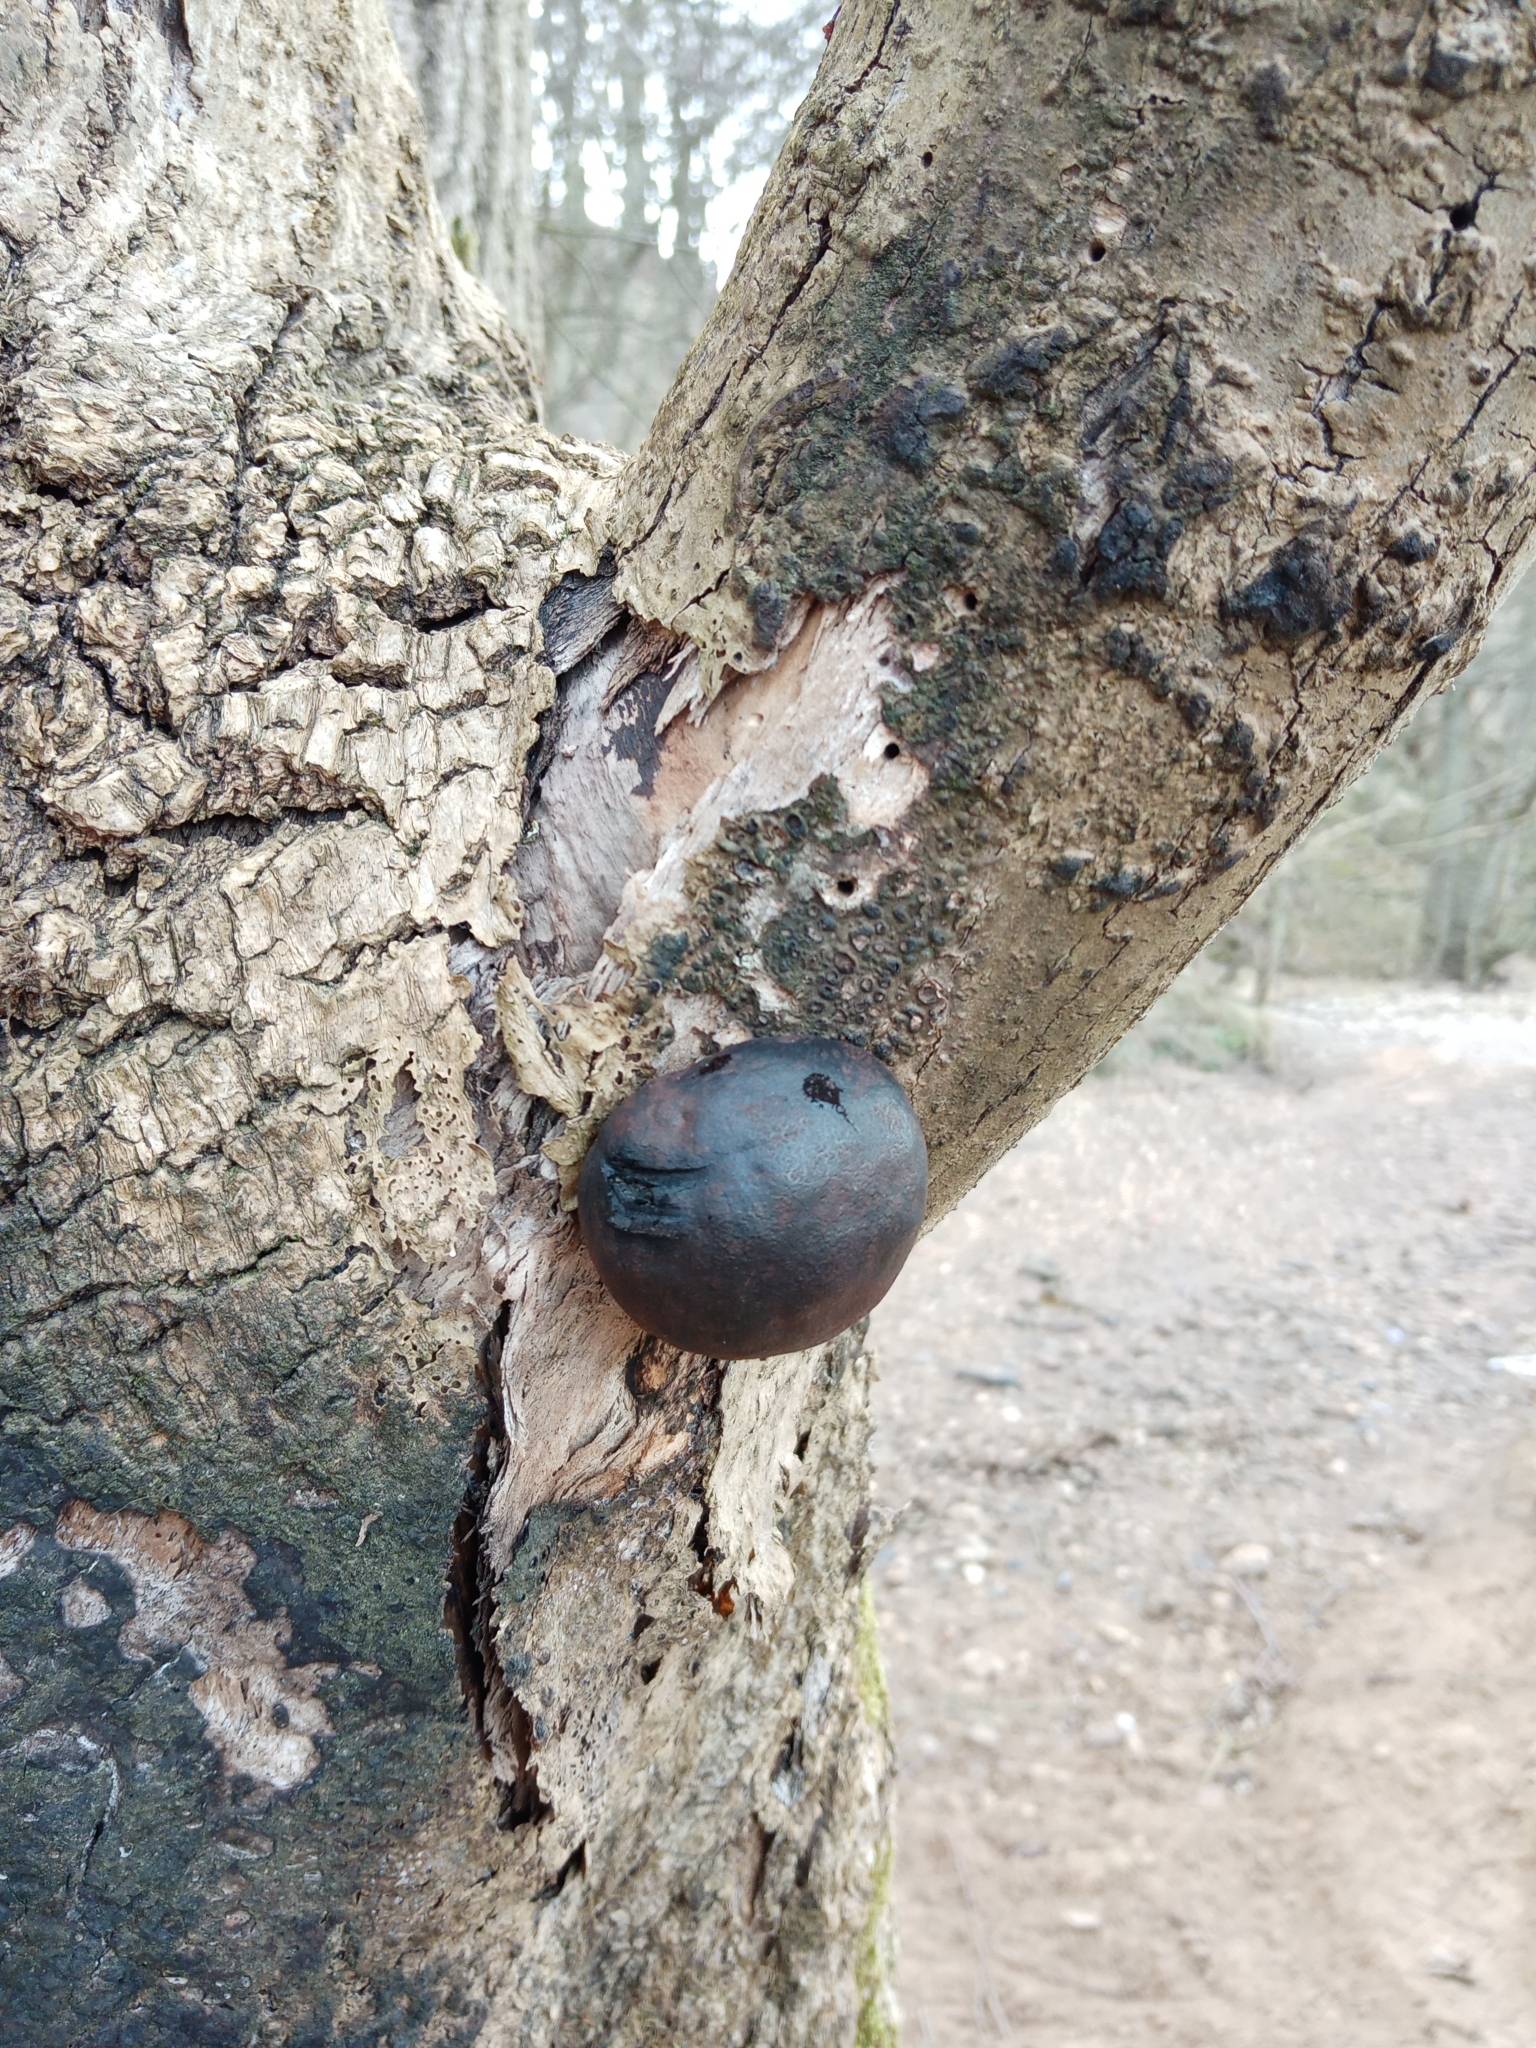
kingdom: Fungi
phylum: Ascomycota
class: Sordariomycetes
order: Xylariales
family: Hypoxylaceae
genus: Daldinia
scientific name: Daldinia concentrica
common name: Cramp balls
